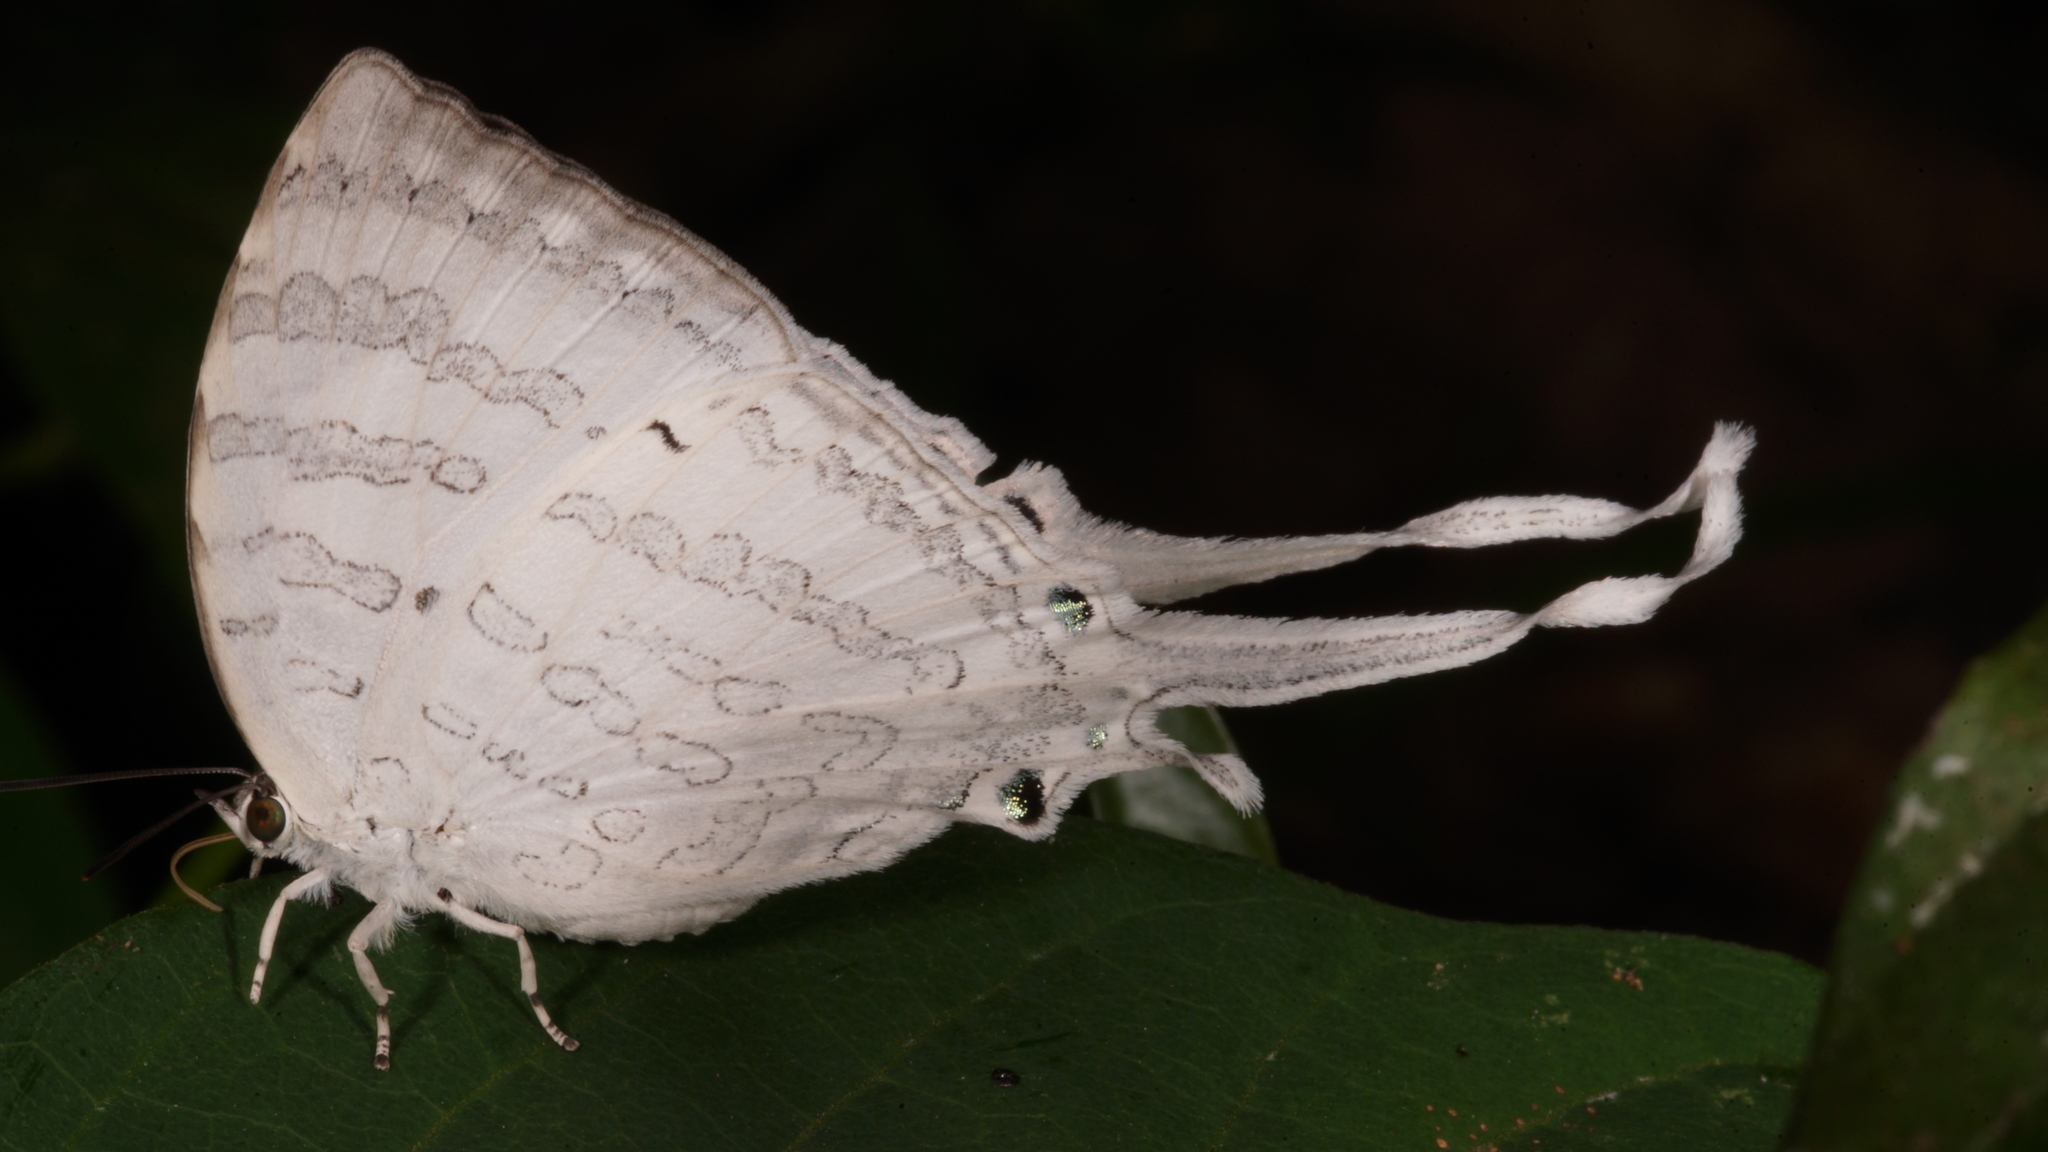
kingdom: Animalia
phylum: Arthropoda
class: Insecta
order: Lepidoptera
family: Lycaenidae
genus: Neomyrina
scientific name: Neomyrina hiemalis
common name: White imperial
